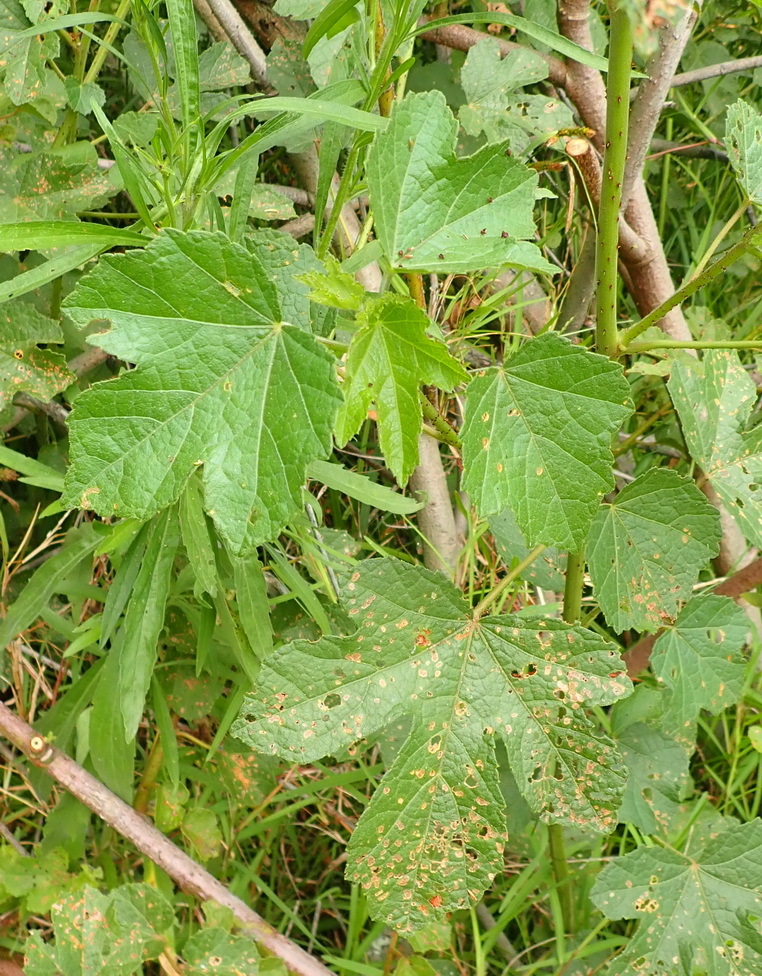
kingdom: Plantae
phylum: Tracheophyta
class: Magnoliopsida
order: Malvales
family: Malvaceae
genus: Hibiscus
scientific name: Hibiscus diversifolius
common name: Cape hibiscus
